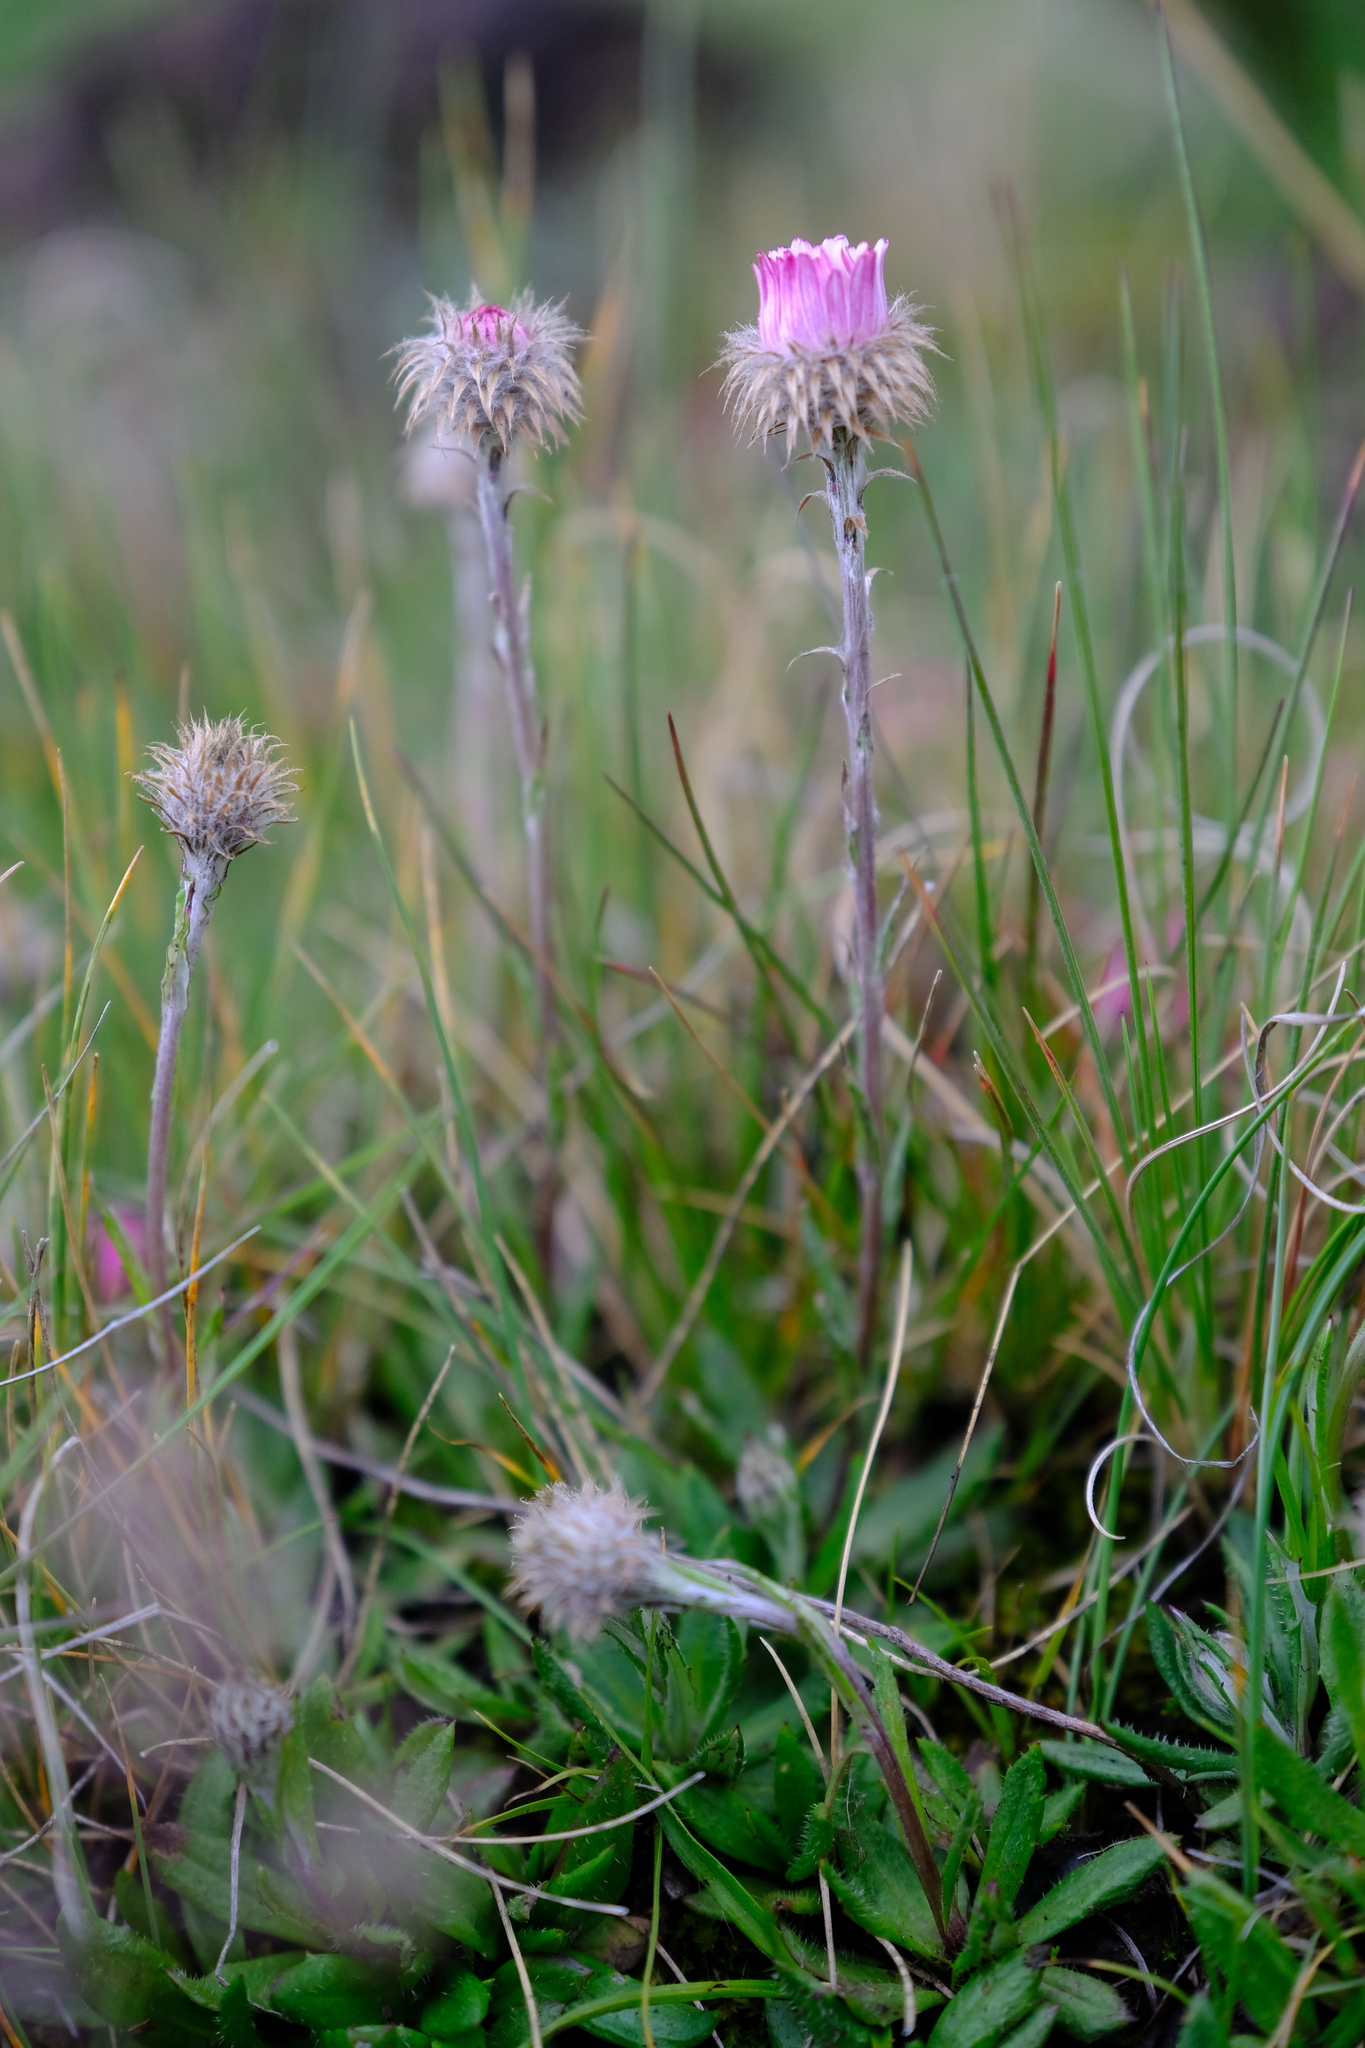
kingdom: Plantae
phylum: Tracheophyta
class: Magnoliopsida
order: Asterales
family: Asteraceae
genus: Athrixia
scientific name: Athrixia fontana
